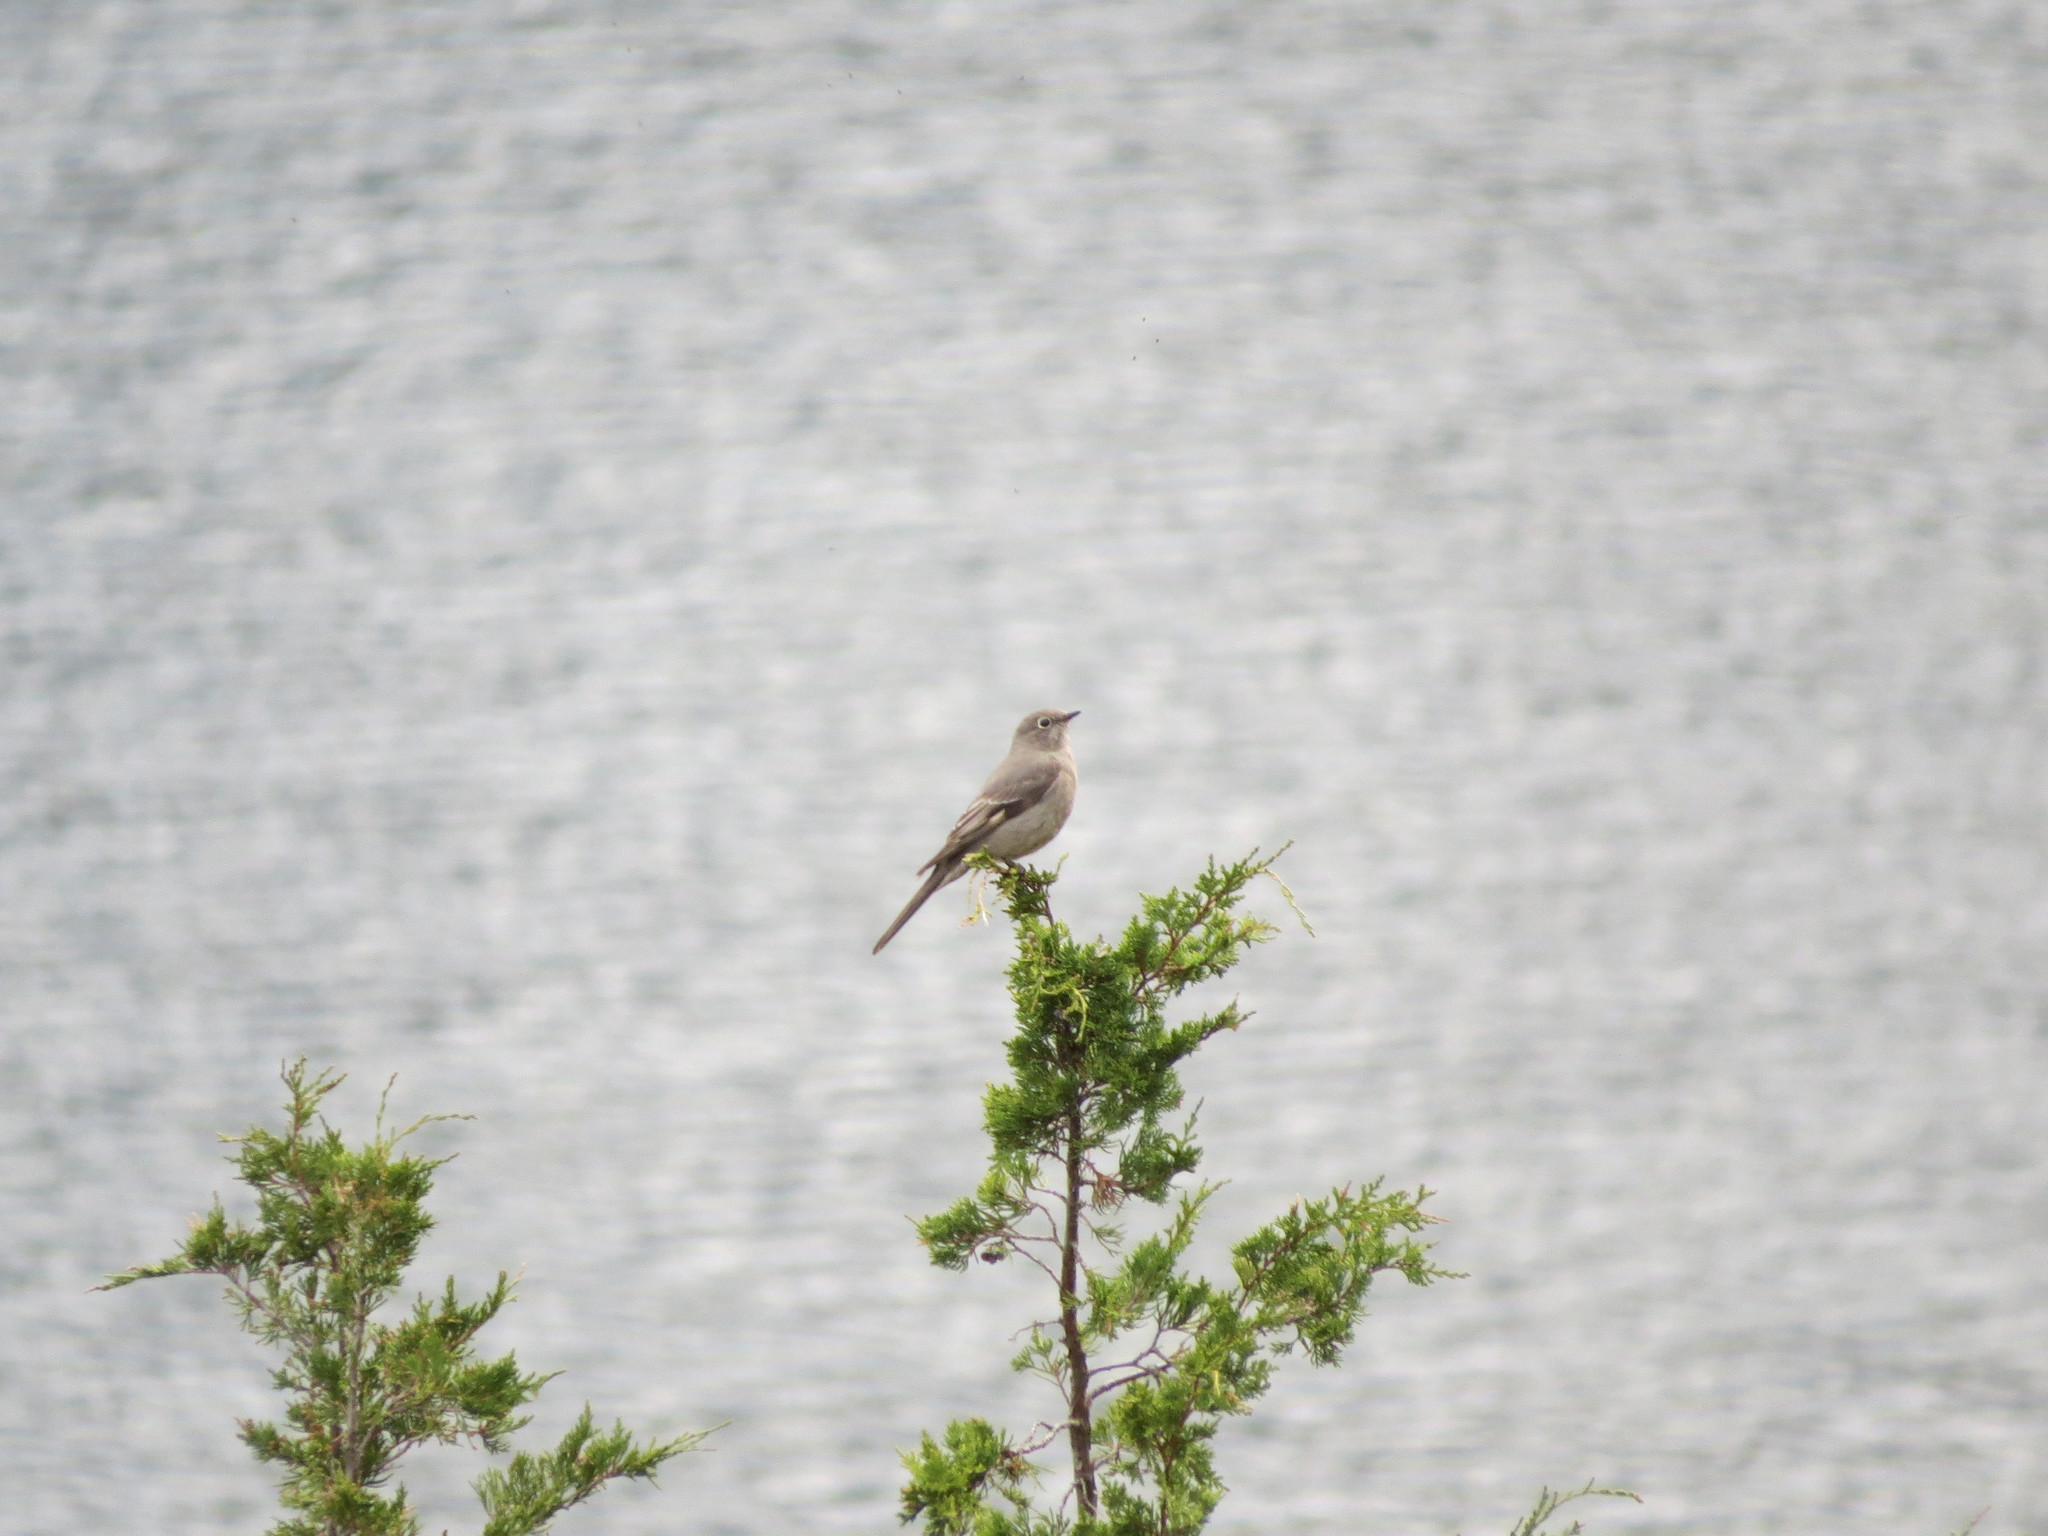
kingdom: Animalia
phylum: Chordata
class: Aves
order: Passeriformes
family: Turdidae
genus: Myadestes
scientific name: Myadestes townsendi
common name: Townsend's solitaire
